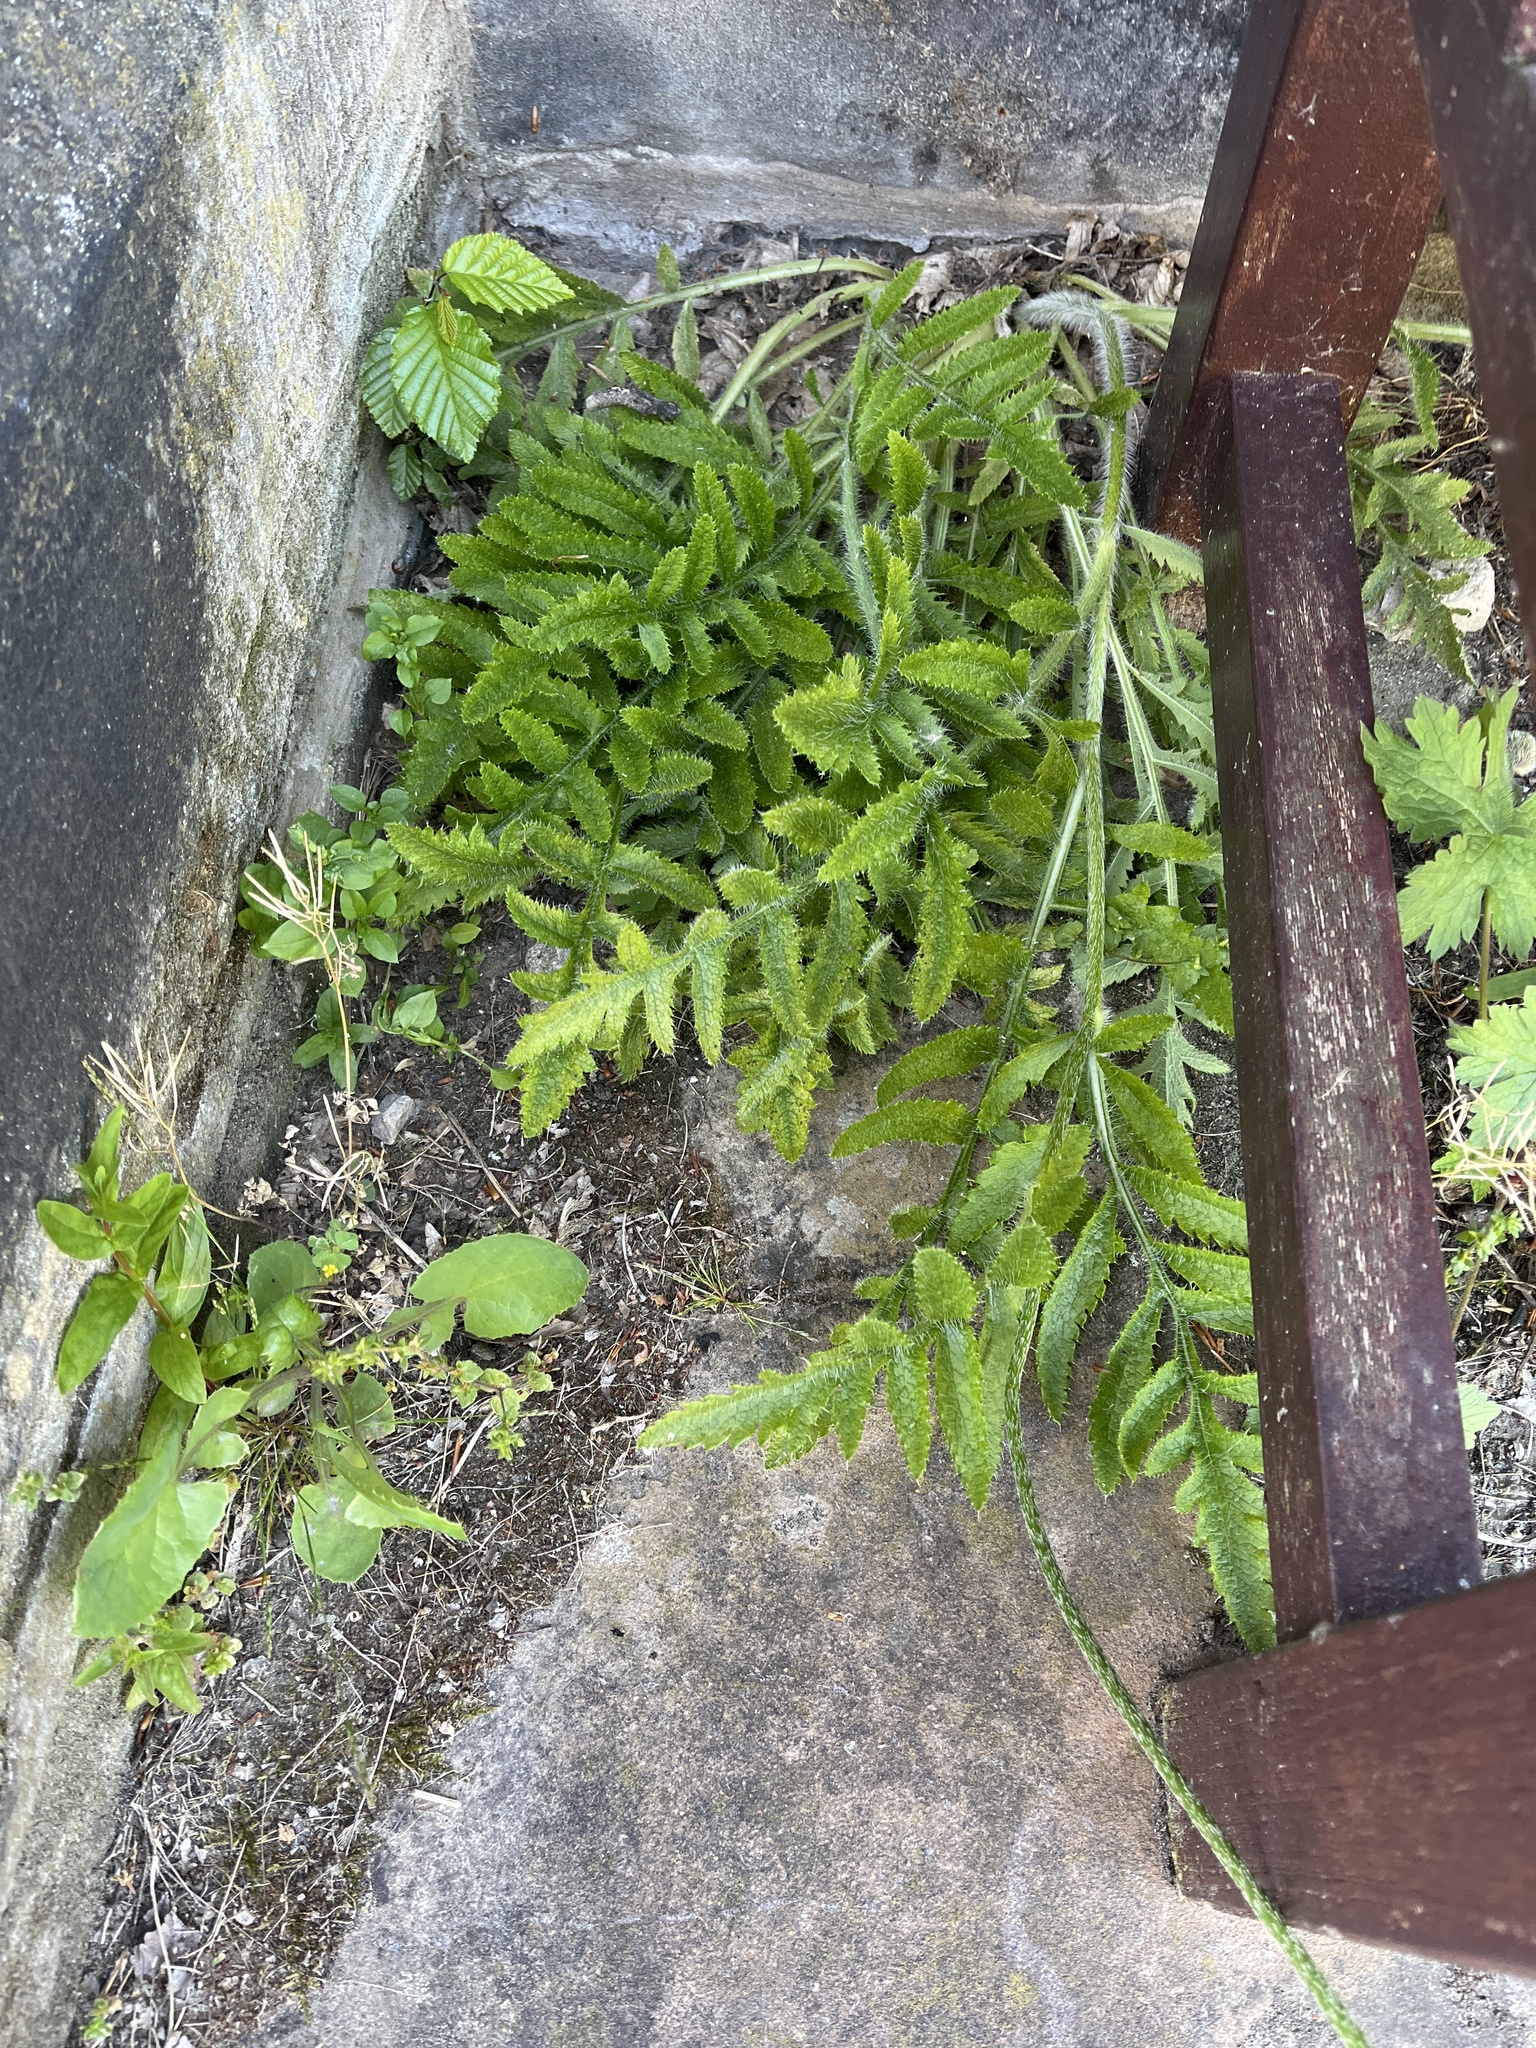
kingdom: Plantae
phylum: Tracheophyta
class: Magnoliopsida
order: Ranunculales
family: Papaveraceae
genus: Papaver
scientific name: Papaver orientale
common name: Oriental poppy
